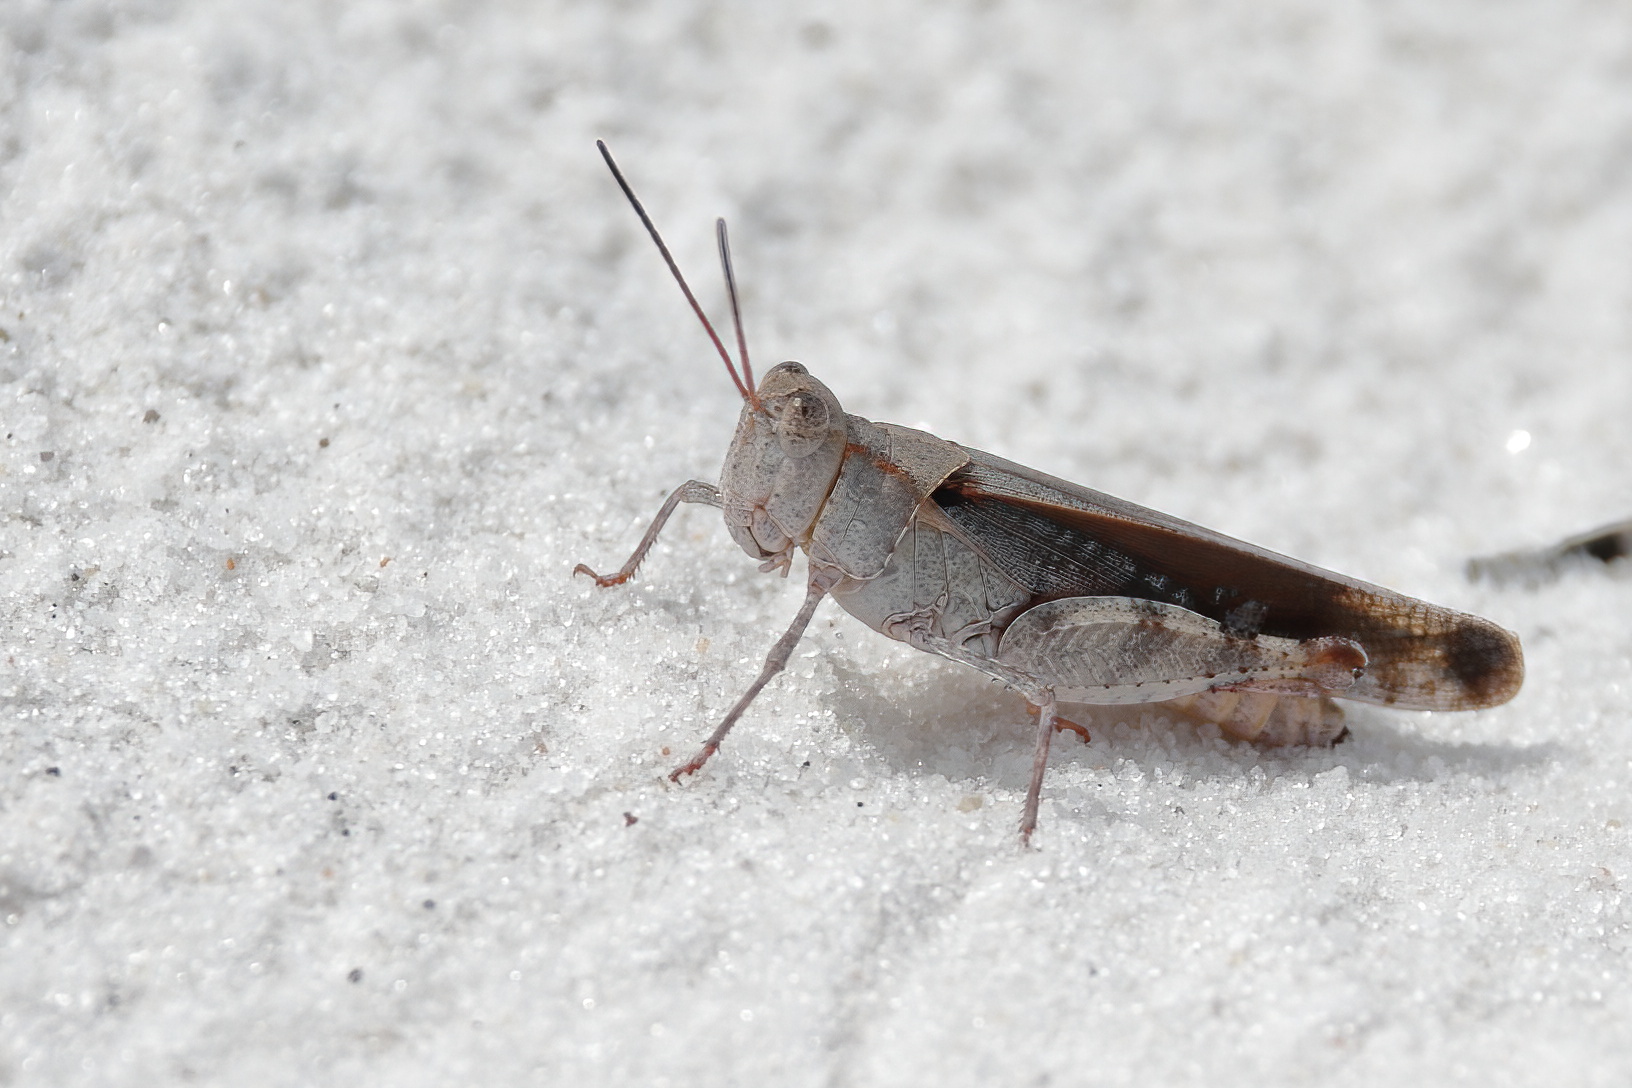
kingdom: Animalia
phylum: Arthropoda
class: Insecta
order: Orthoptera
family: Acrididae
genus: Spharagemon
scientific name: Spharagemon marmoratum
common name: Marbled grasshopper
